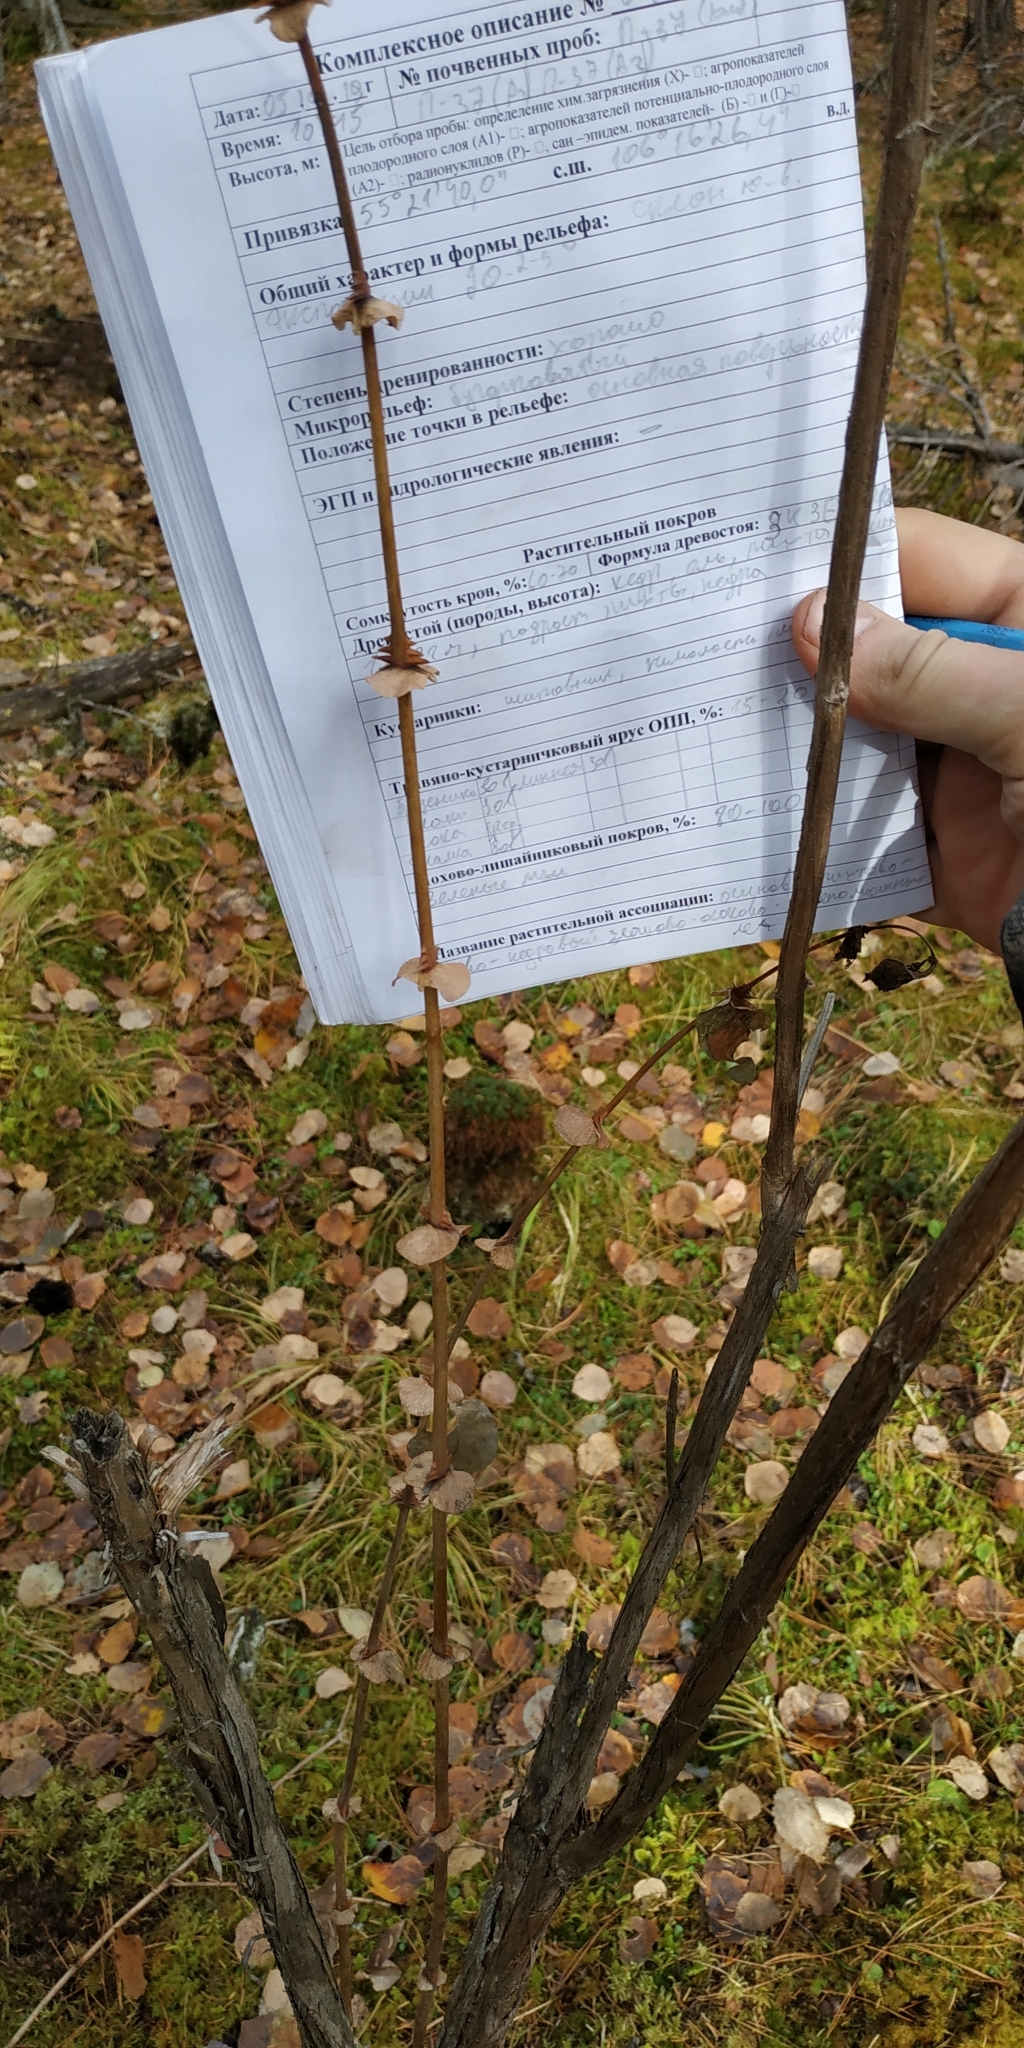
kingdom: Plantae
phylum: Tracheophyta
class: Magnoliopsida
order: Dipsacales
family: Caprifoliaceae
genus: Lonicera
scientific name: Lonicera caerulea
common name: Blue honeysuckle
